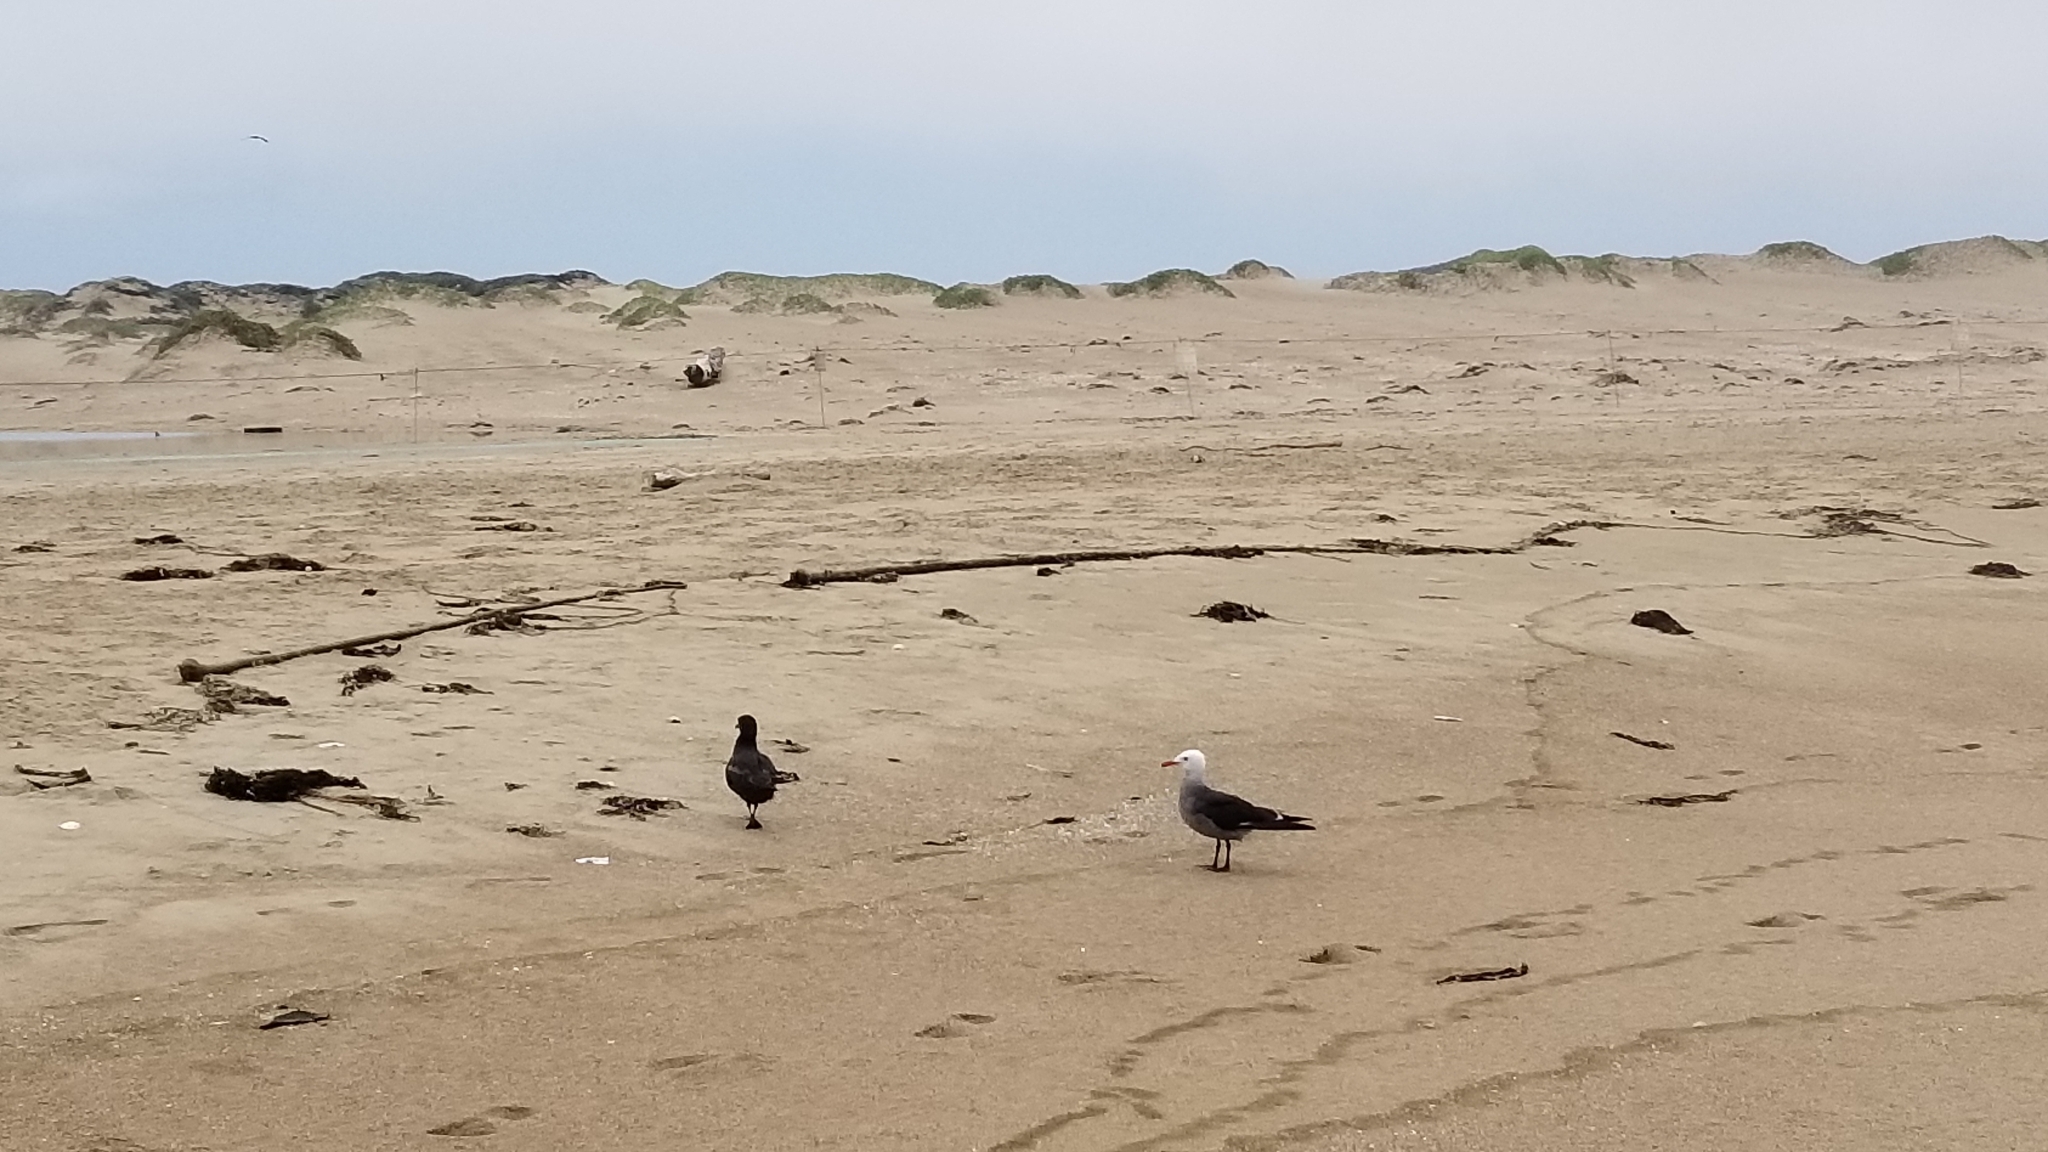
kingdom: Animalia
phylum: Chordata
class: Aves
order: Charadriiformes
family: Laridae
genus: Larus
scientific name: Larus heermanni
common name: Heermann's gull
